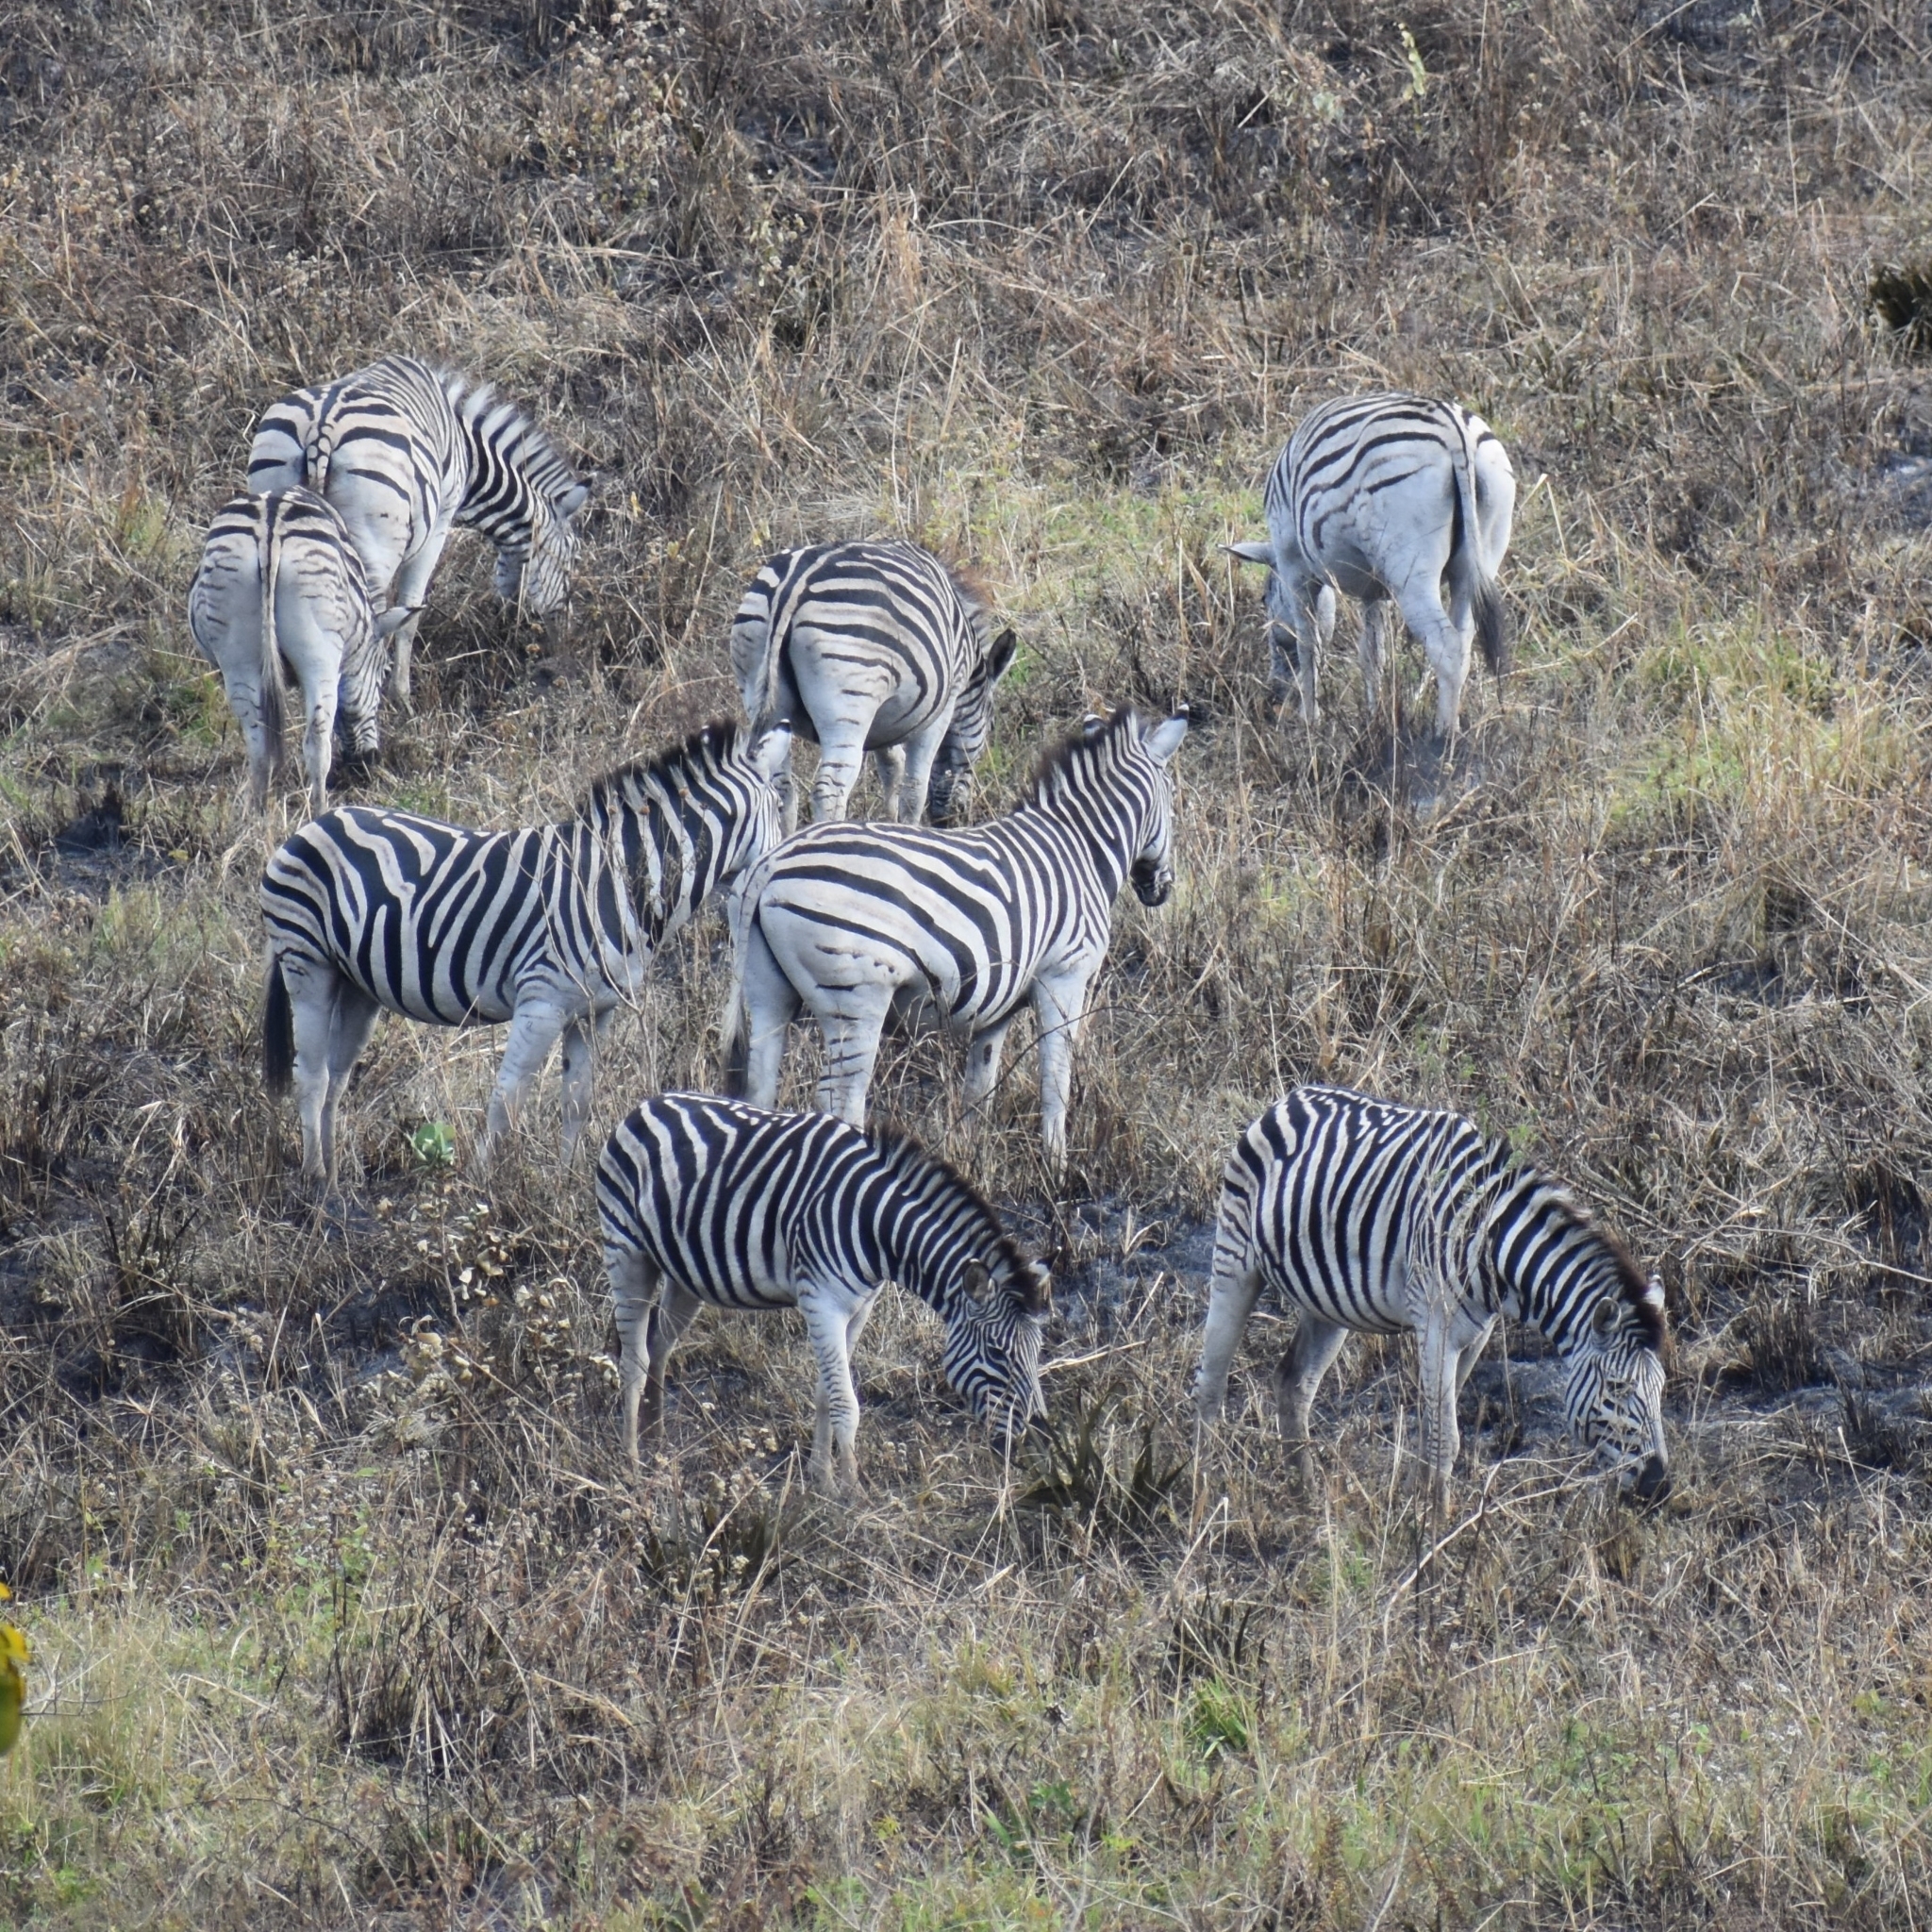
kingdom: Animalia
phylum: Chordata
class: Mammalia
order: Perissodactyla
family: Equidae
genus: Equus
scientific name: Equus quagga
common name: Plains zebra
